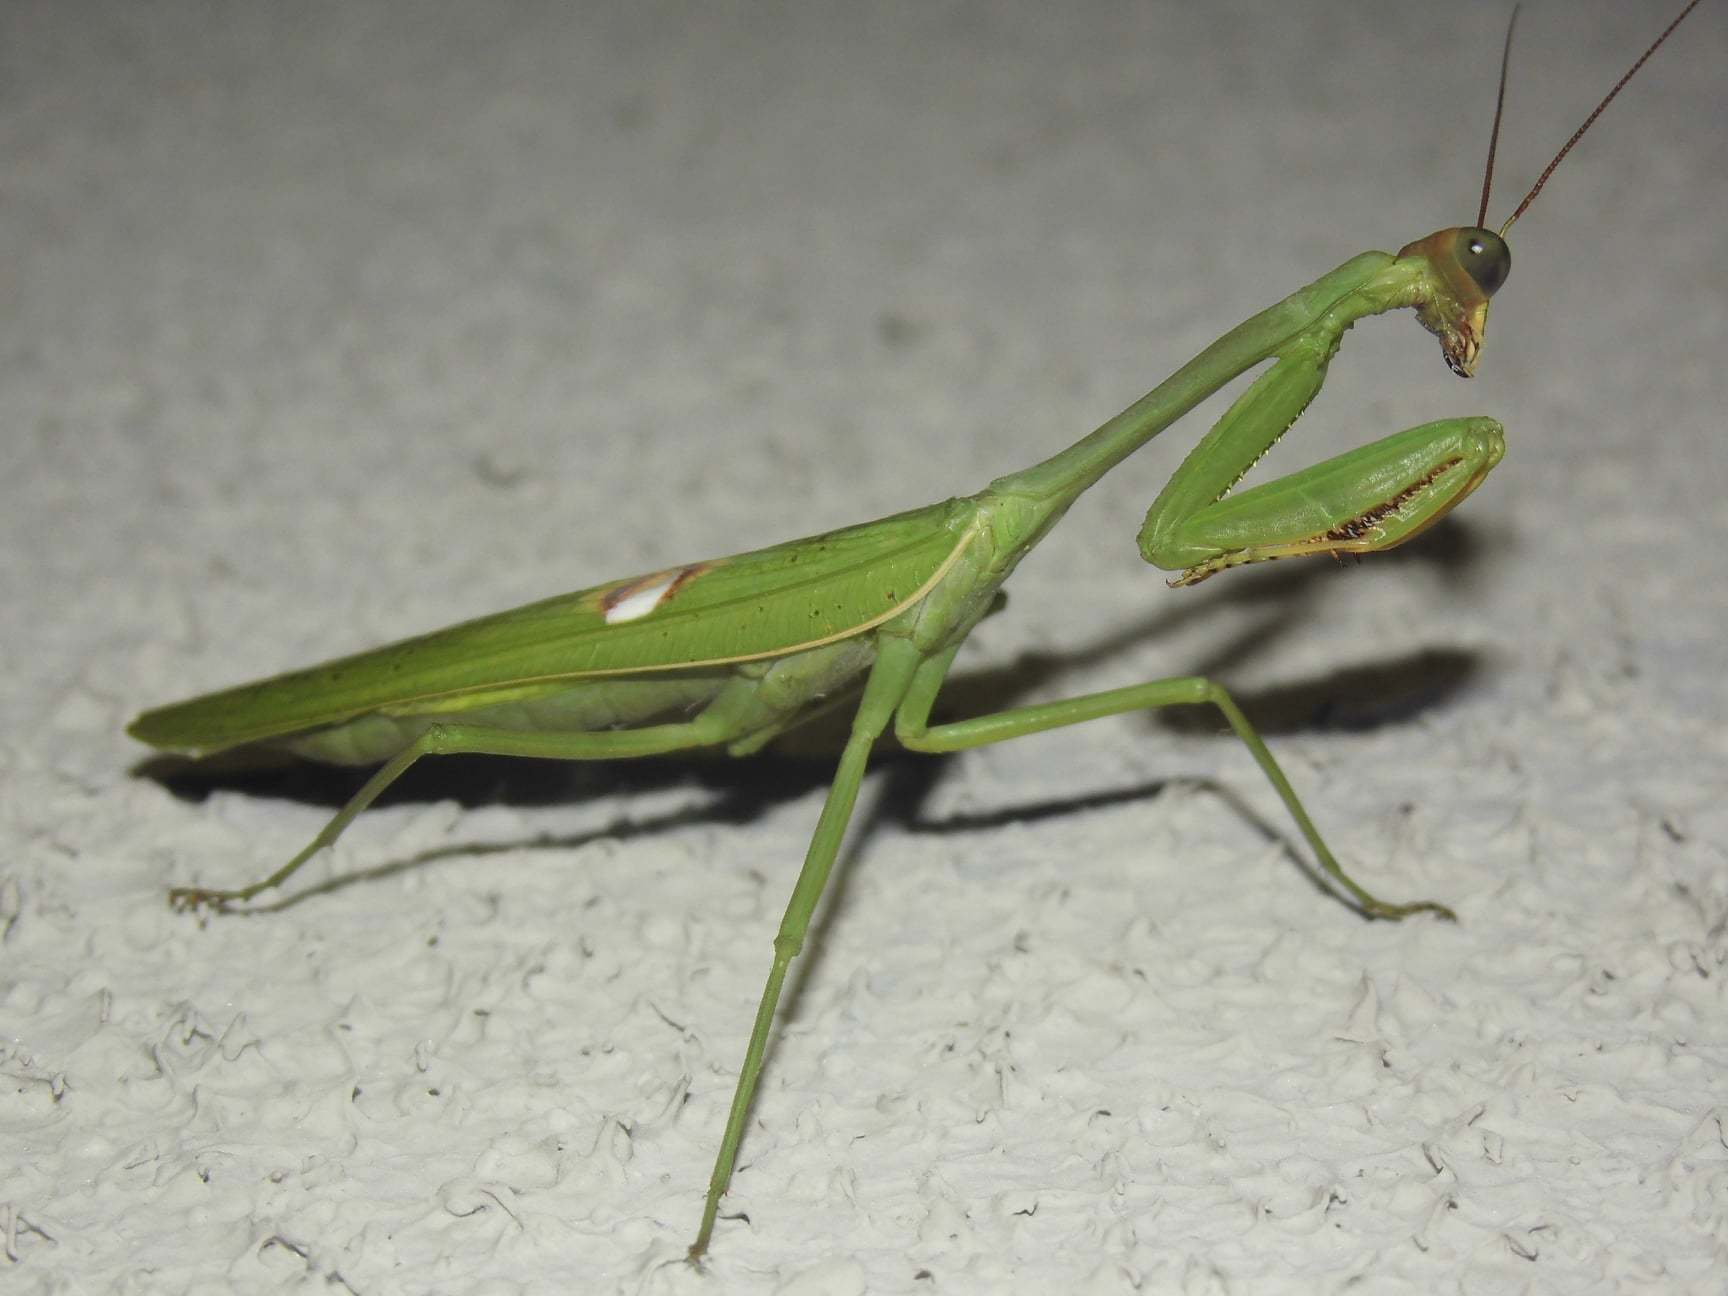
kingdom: Animalia
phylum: Arthropoda
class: Insecta
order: Mantodea
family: Mantidae
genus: Stagmatoptera
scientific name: Stagmatoptera hyaloptera
